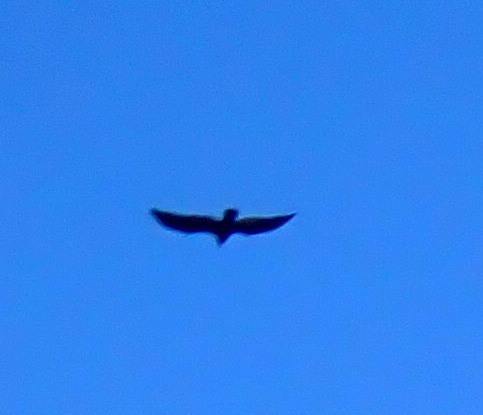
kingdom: Animalia
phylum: Chordata
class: Aves
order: Accipitriformes
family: Cathartidae
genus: Cathartes
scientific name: Cathartes aura
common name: Turkey vulture
